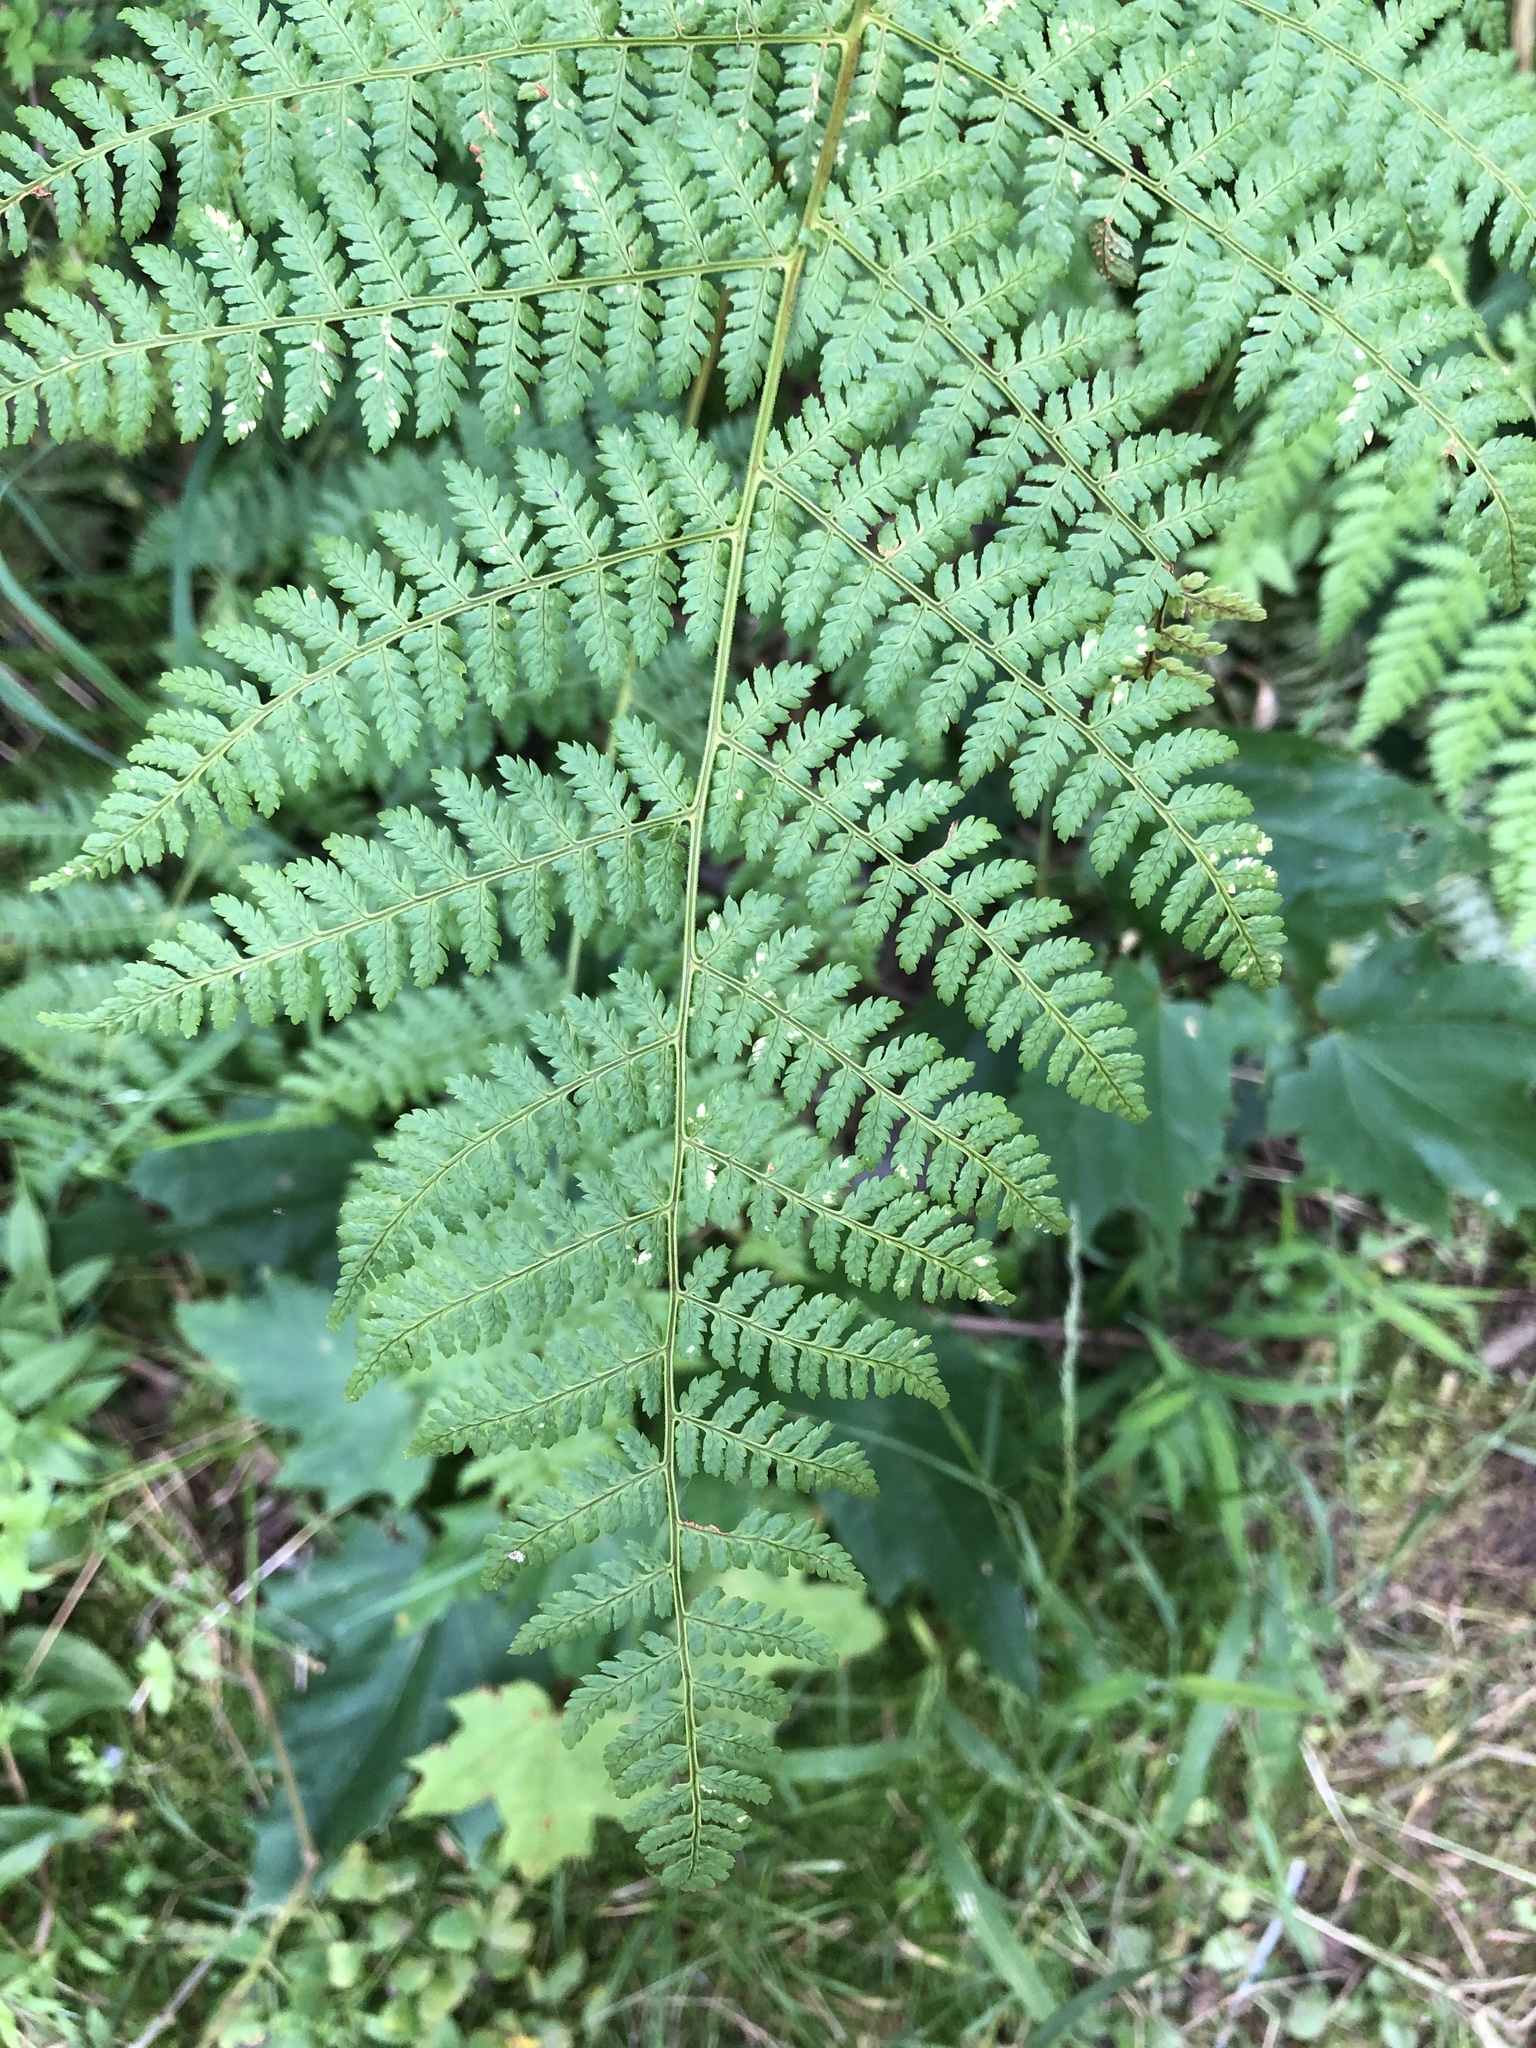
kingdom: Plantae
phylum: Tracheophyta
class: Polypodiopsida
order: Polypodiales
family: Dryopteridaceae
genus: Dryopteris
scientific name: Dryopteris intermedia
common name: Evergreen wood fern
